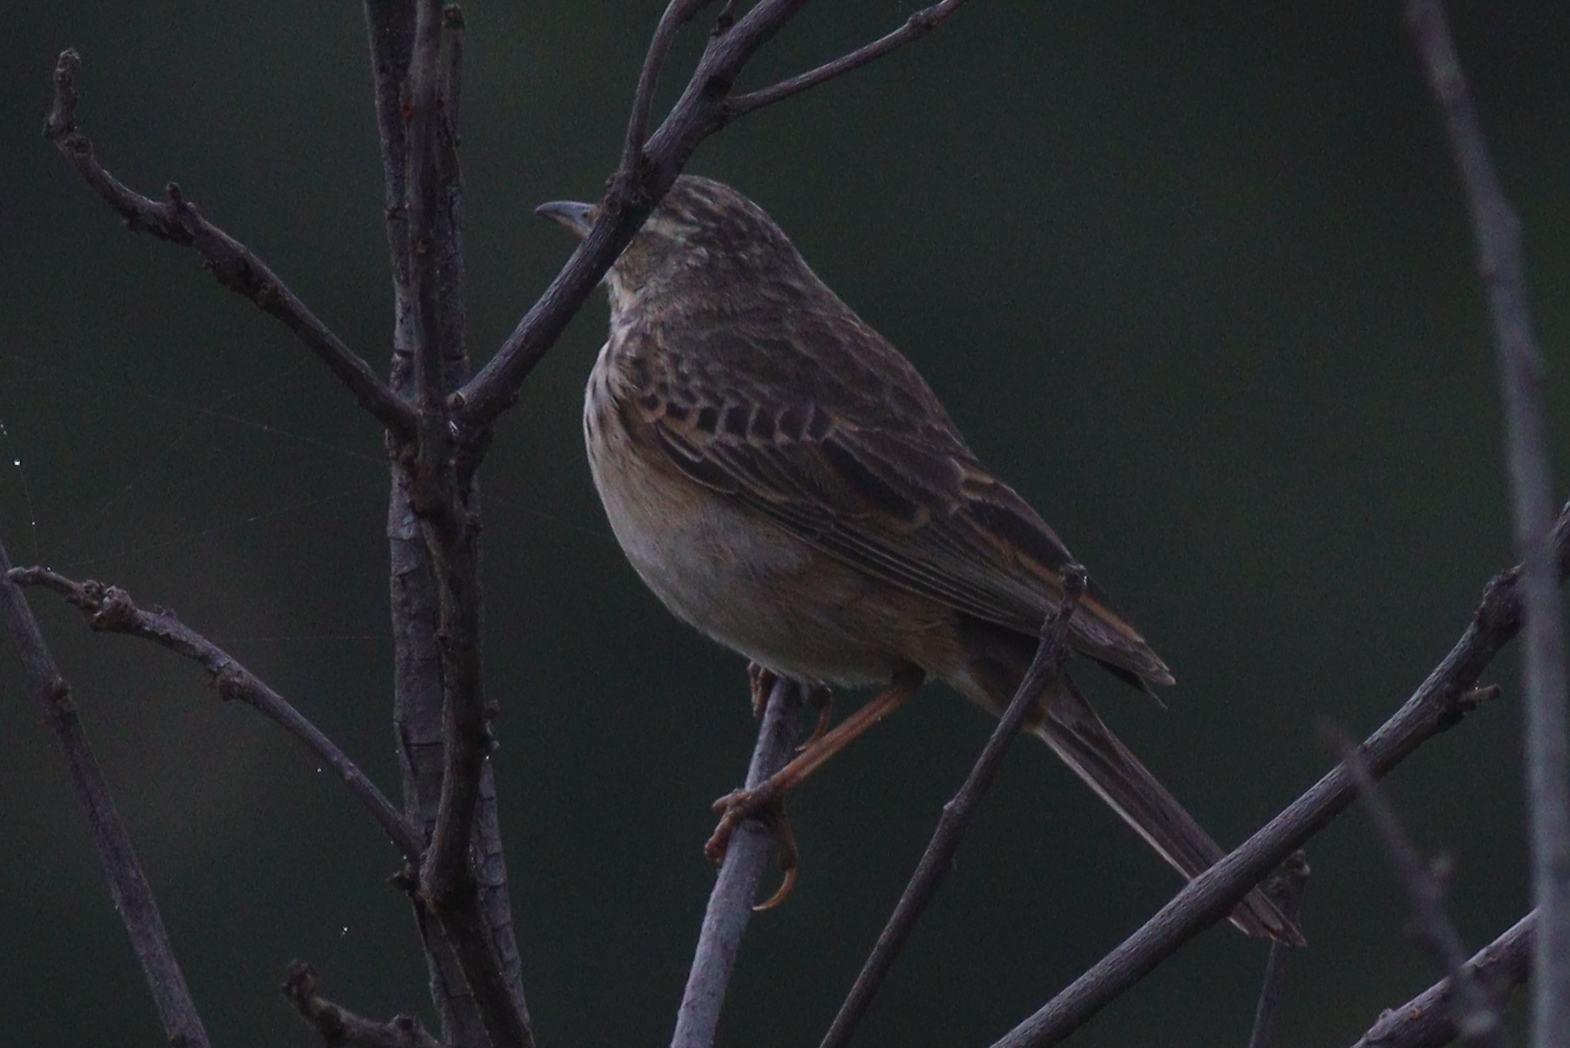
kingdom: Animalia
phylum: Chordata
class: Aves
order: Passeriformes
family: Motacillidae
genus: Anthus
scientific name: Anthus cinnamomeus
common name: African pipit
